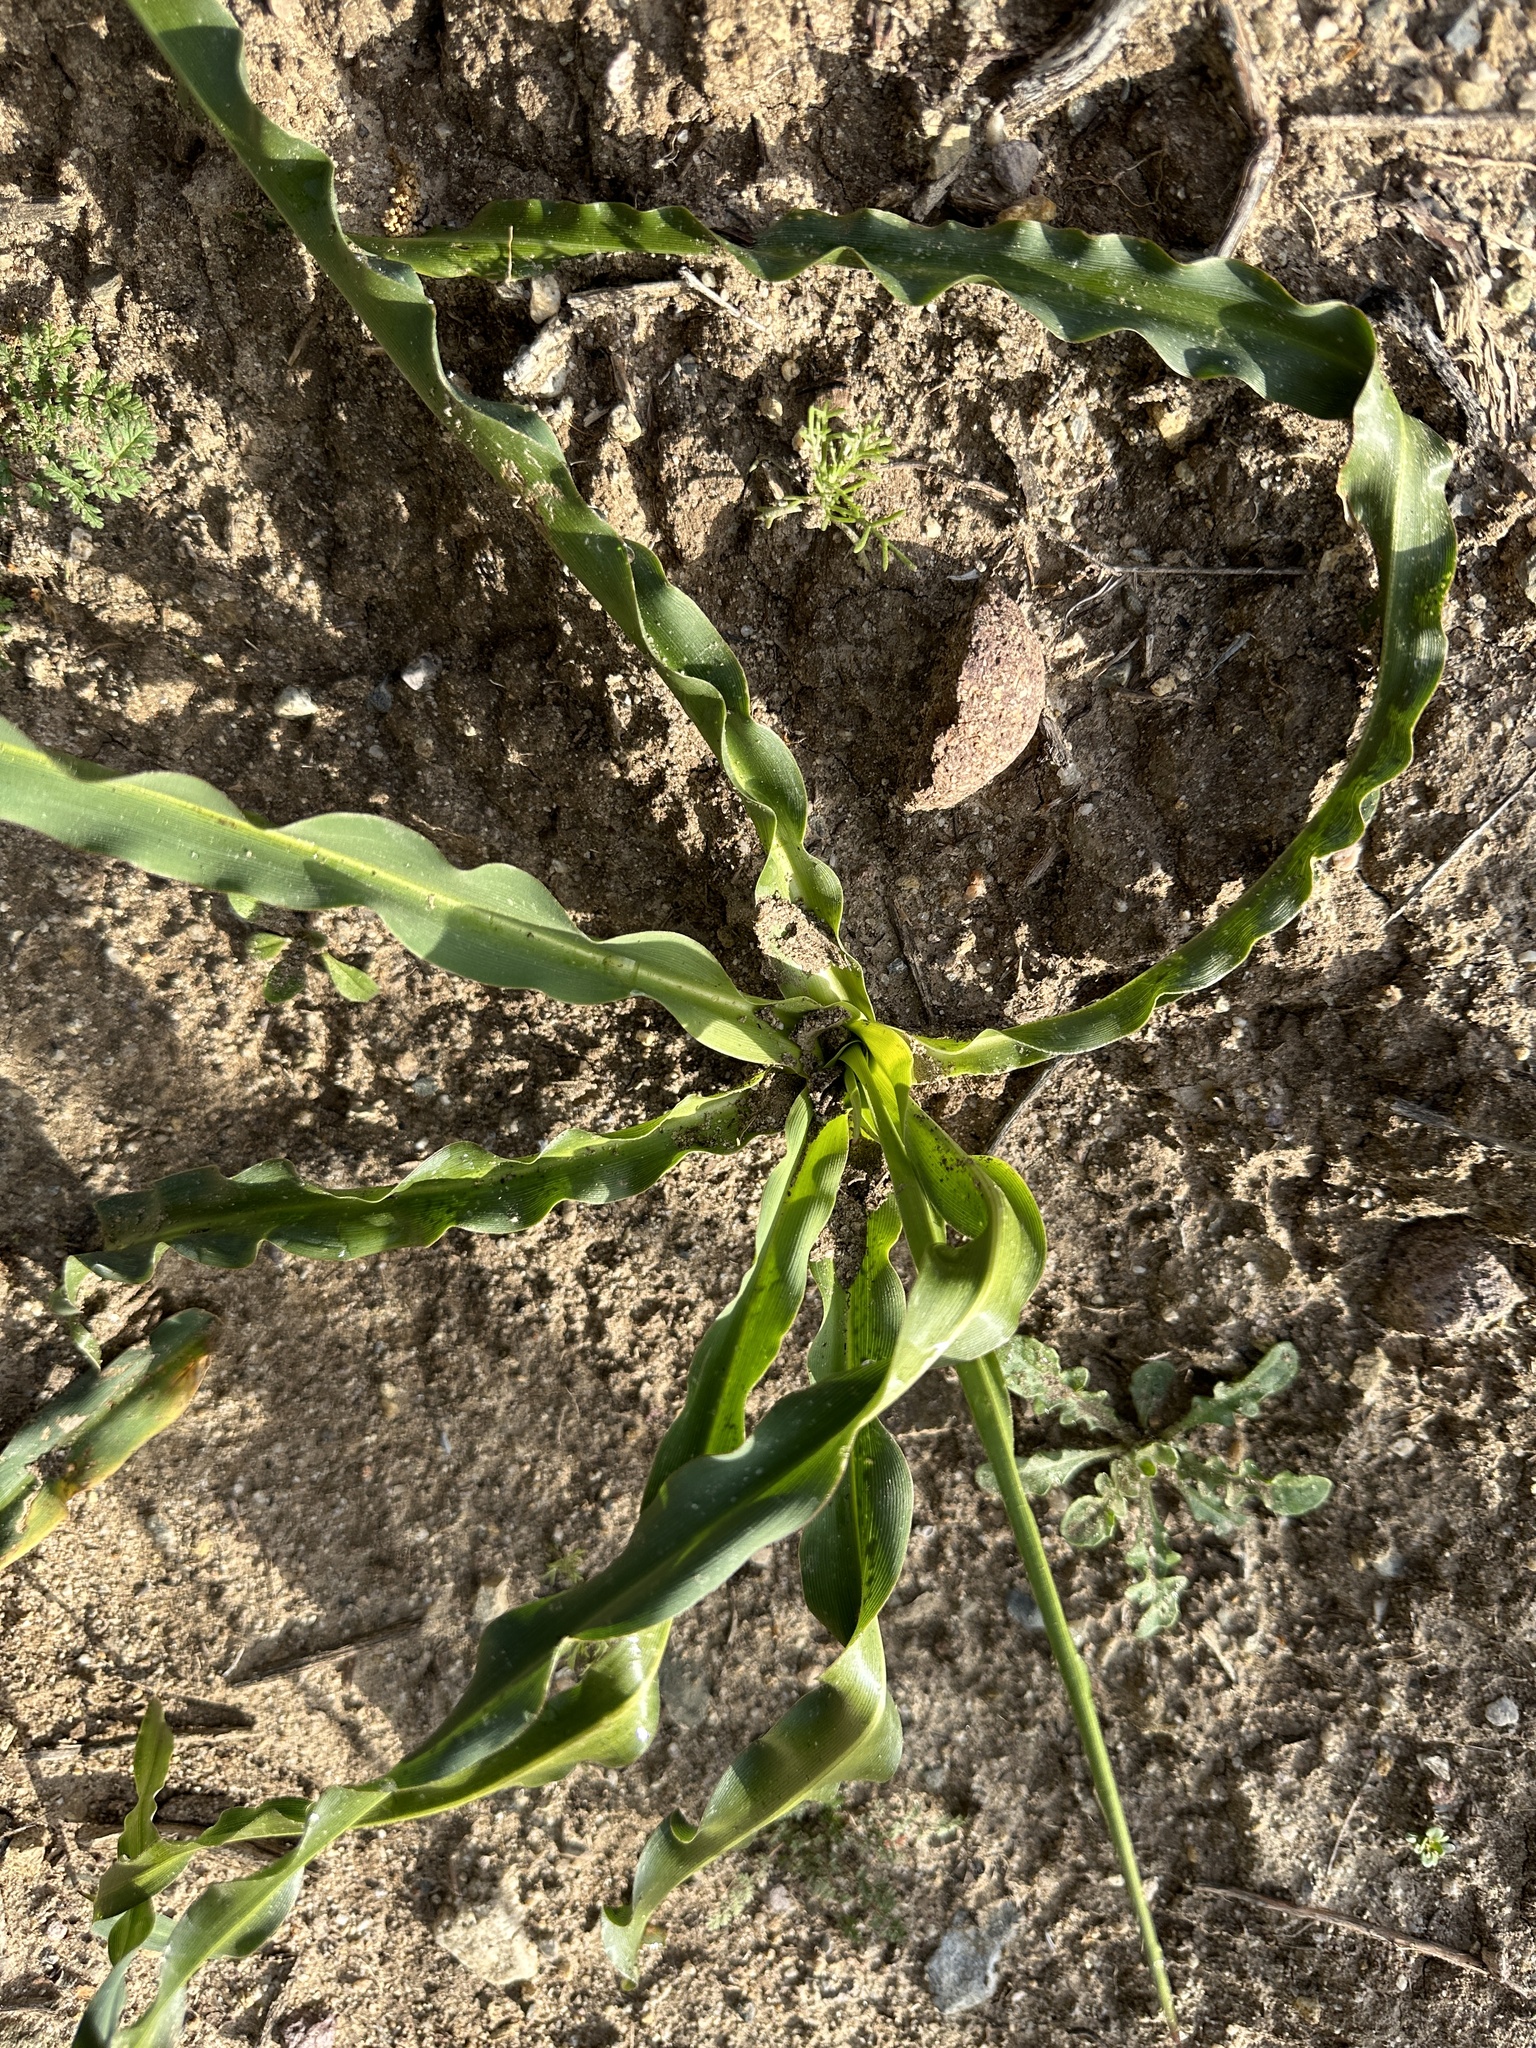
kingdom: Plantae
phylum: Tracheophyta
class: Liliopsida
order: Asparagales
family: Asparagaceae
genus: Chlorogalum
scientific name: Chlorogalum pomeridianum
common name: Amole
